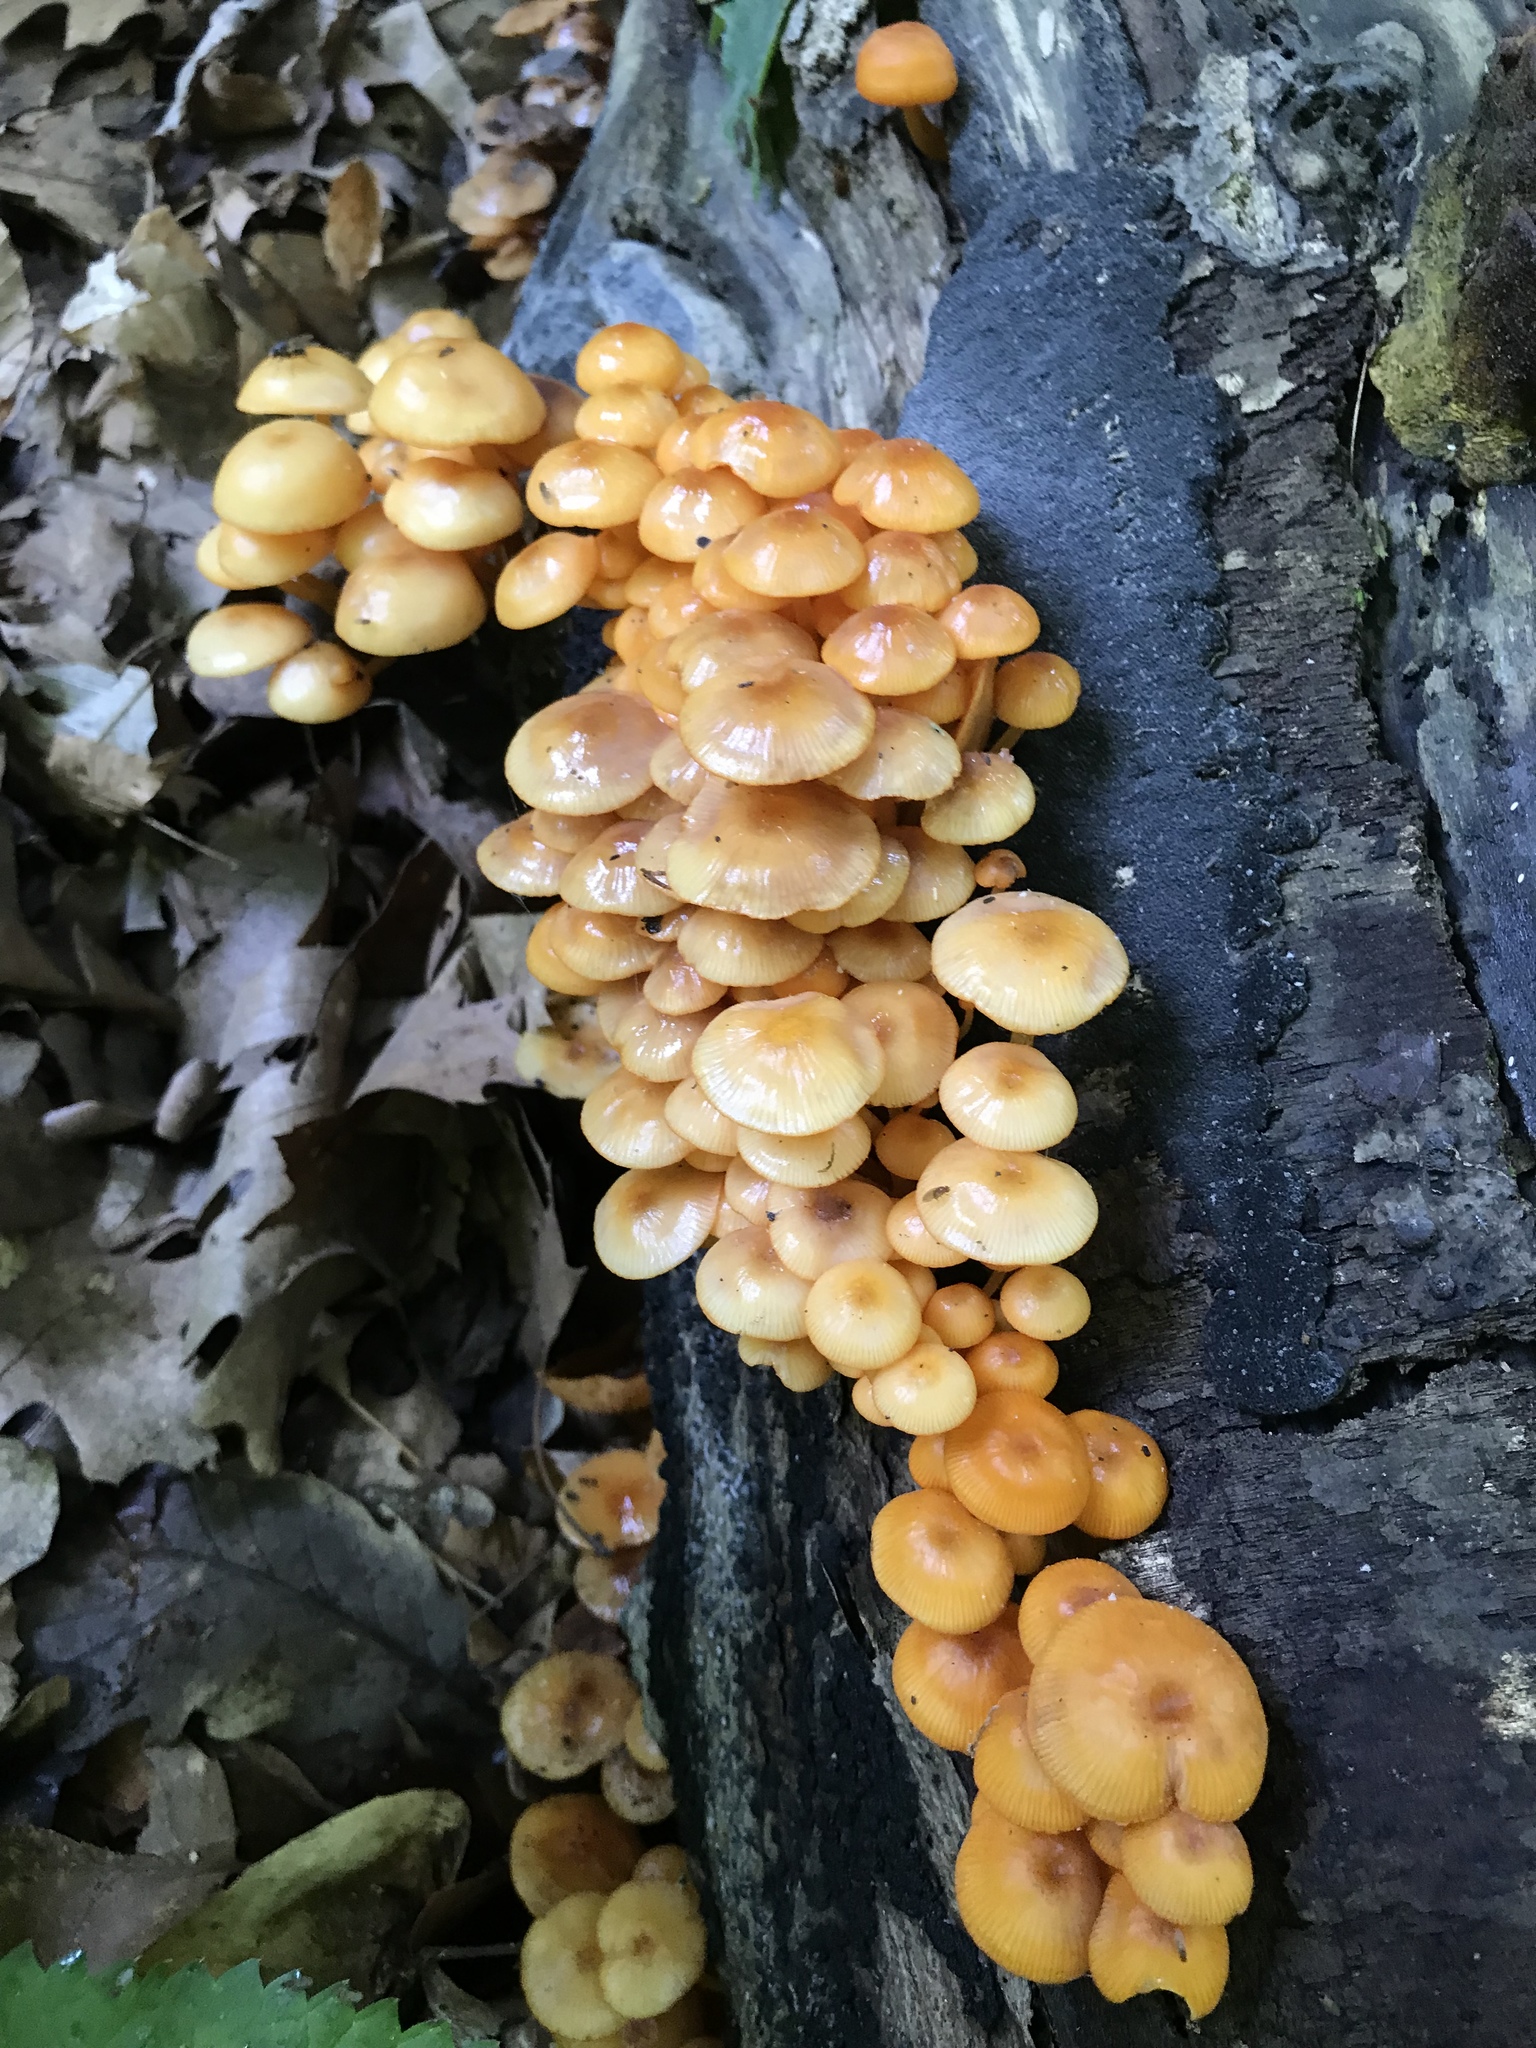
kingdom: Fungi
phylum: Basidiomycota
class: Agaricomycetes
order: Agaricales
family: Mycenaceae
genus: Mycena
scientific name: Mycena leaiana
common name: Orange mycena
